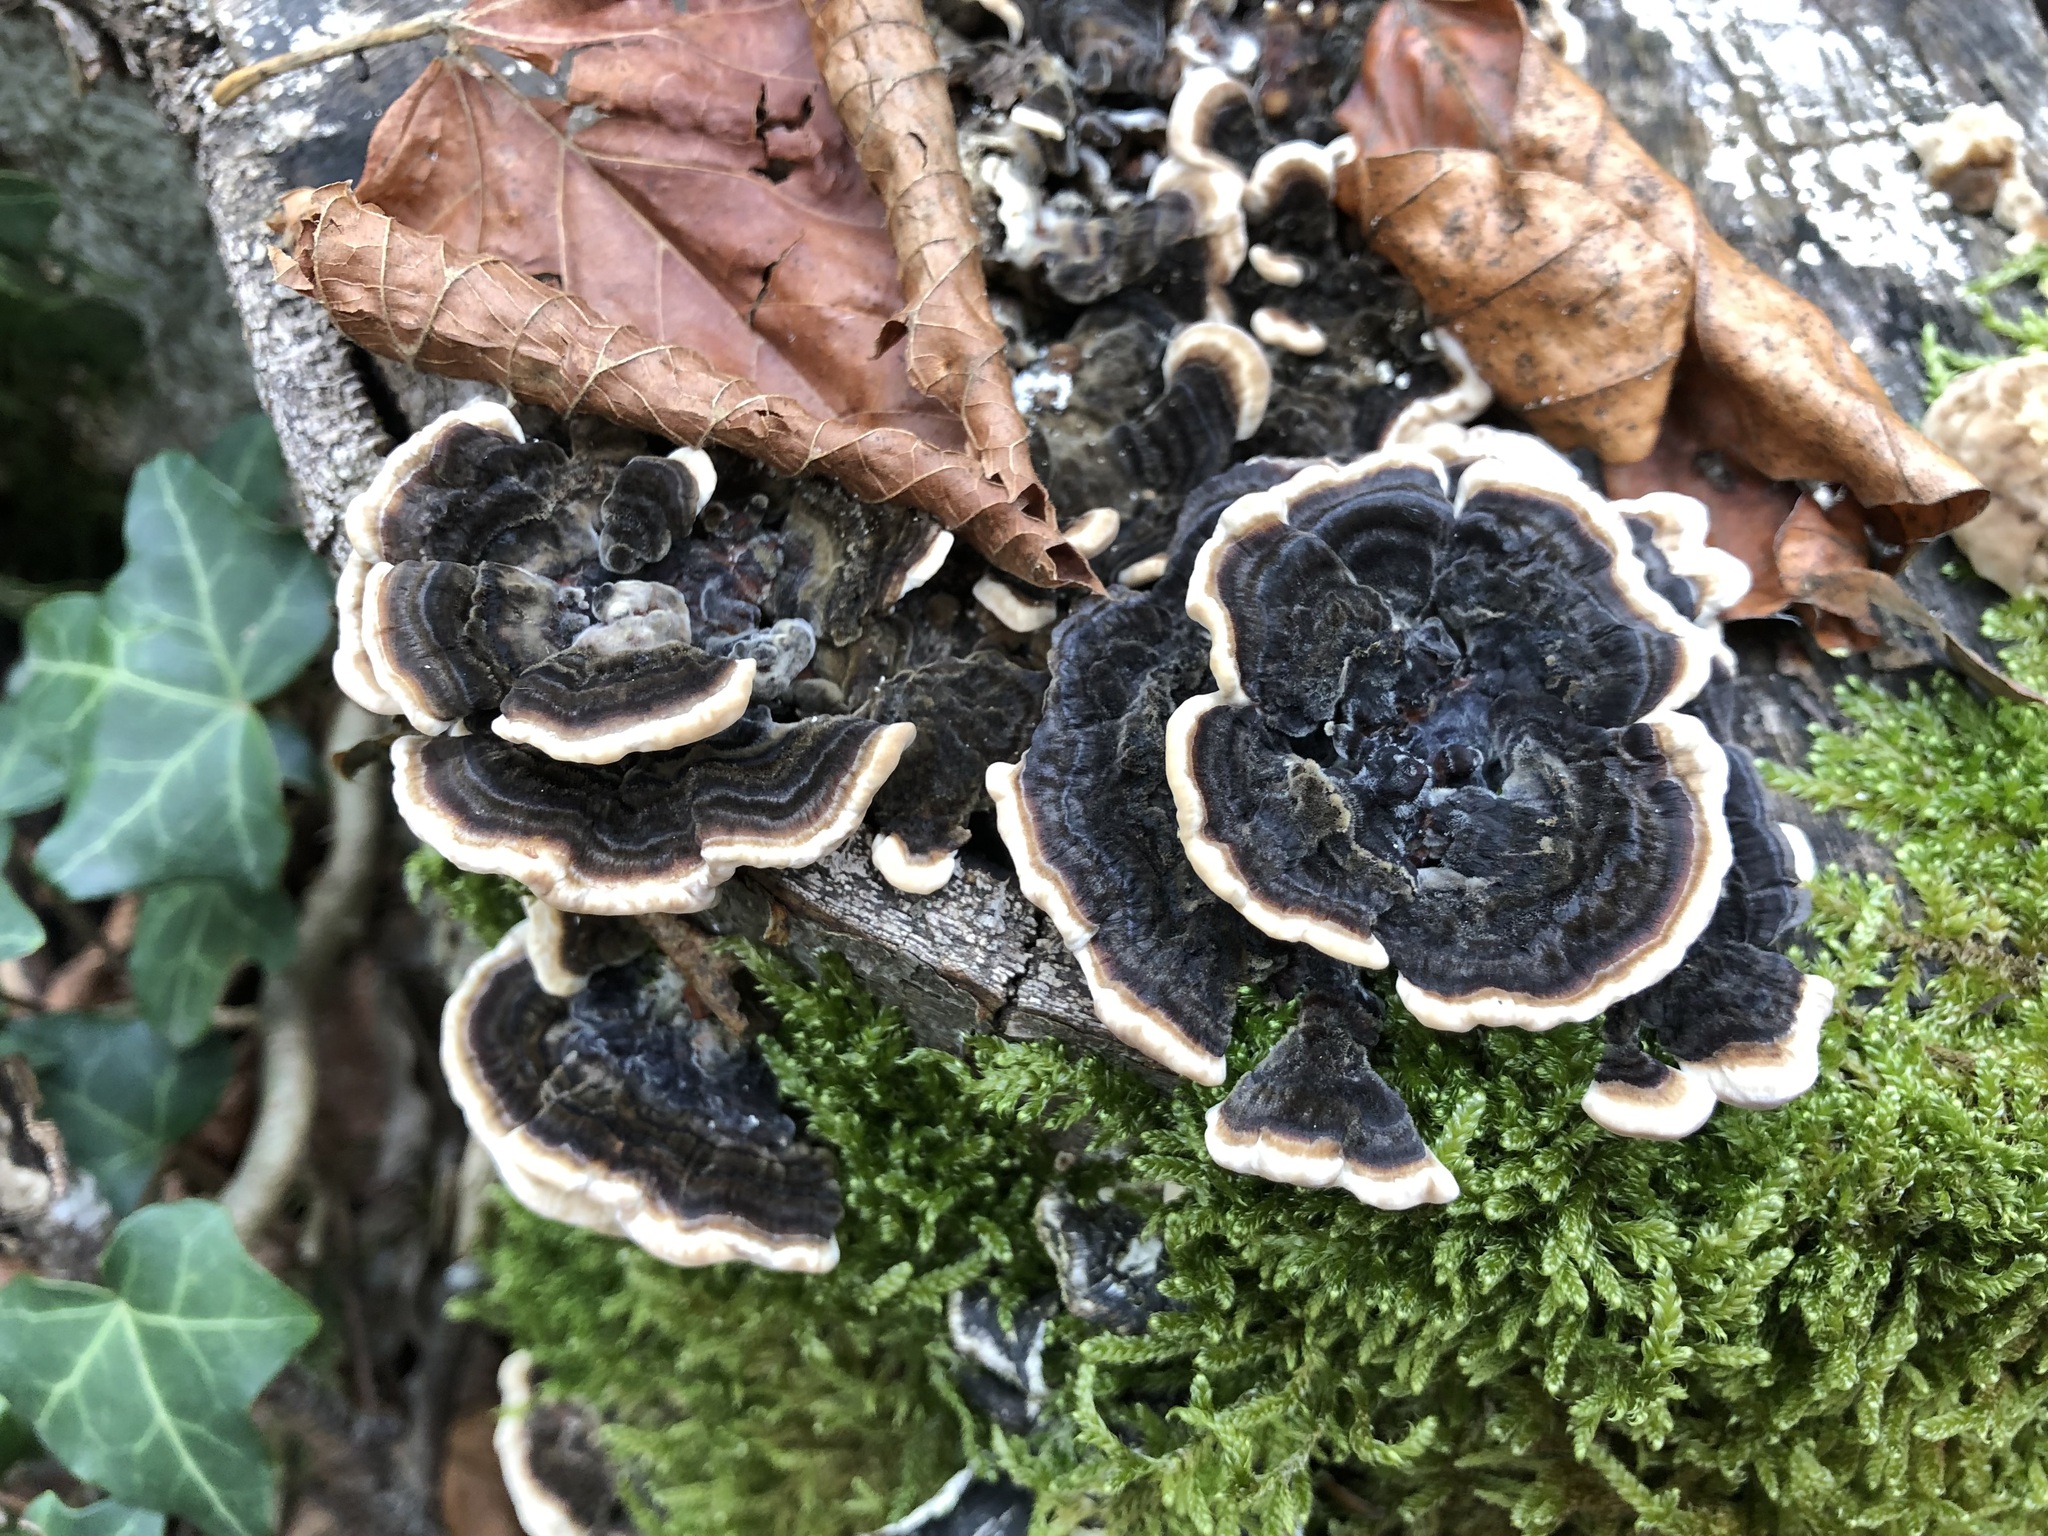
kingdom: Fungi
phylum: Basidiomycota
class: Agaricomycetes
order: Polyporales
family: Polyporaceae
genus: Trametes
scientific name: Trametes versicolor
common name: Turkeytail
